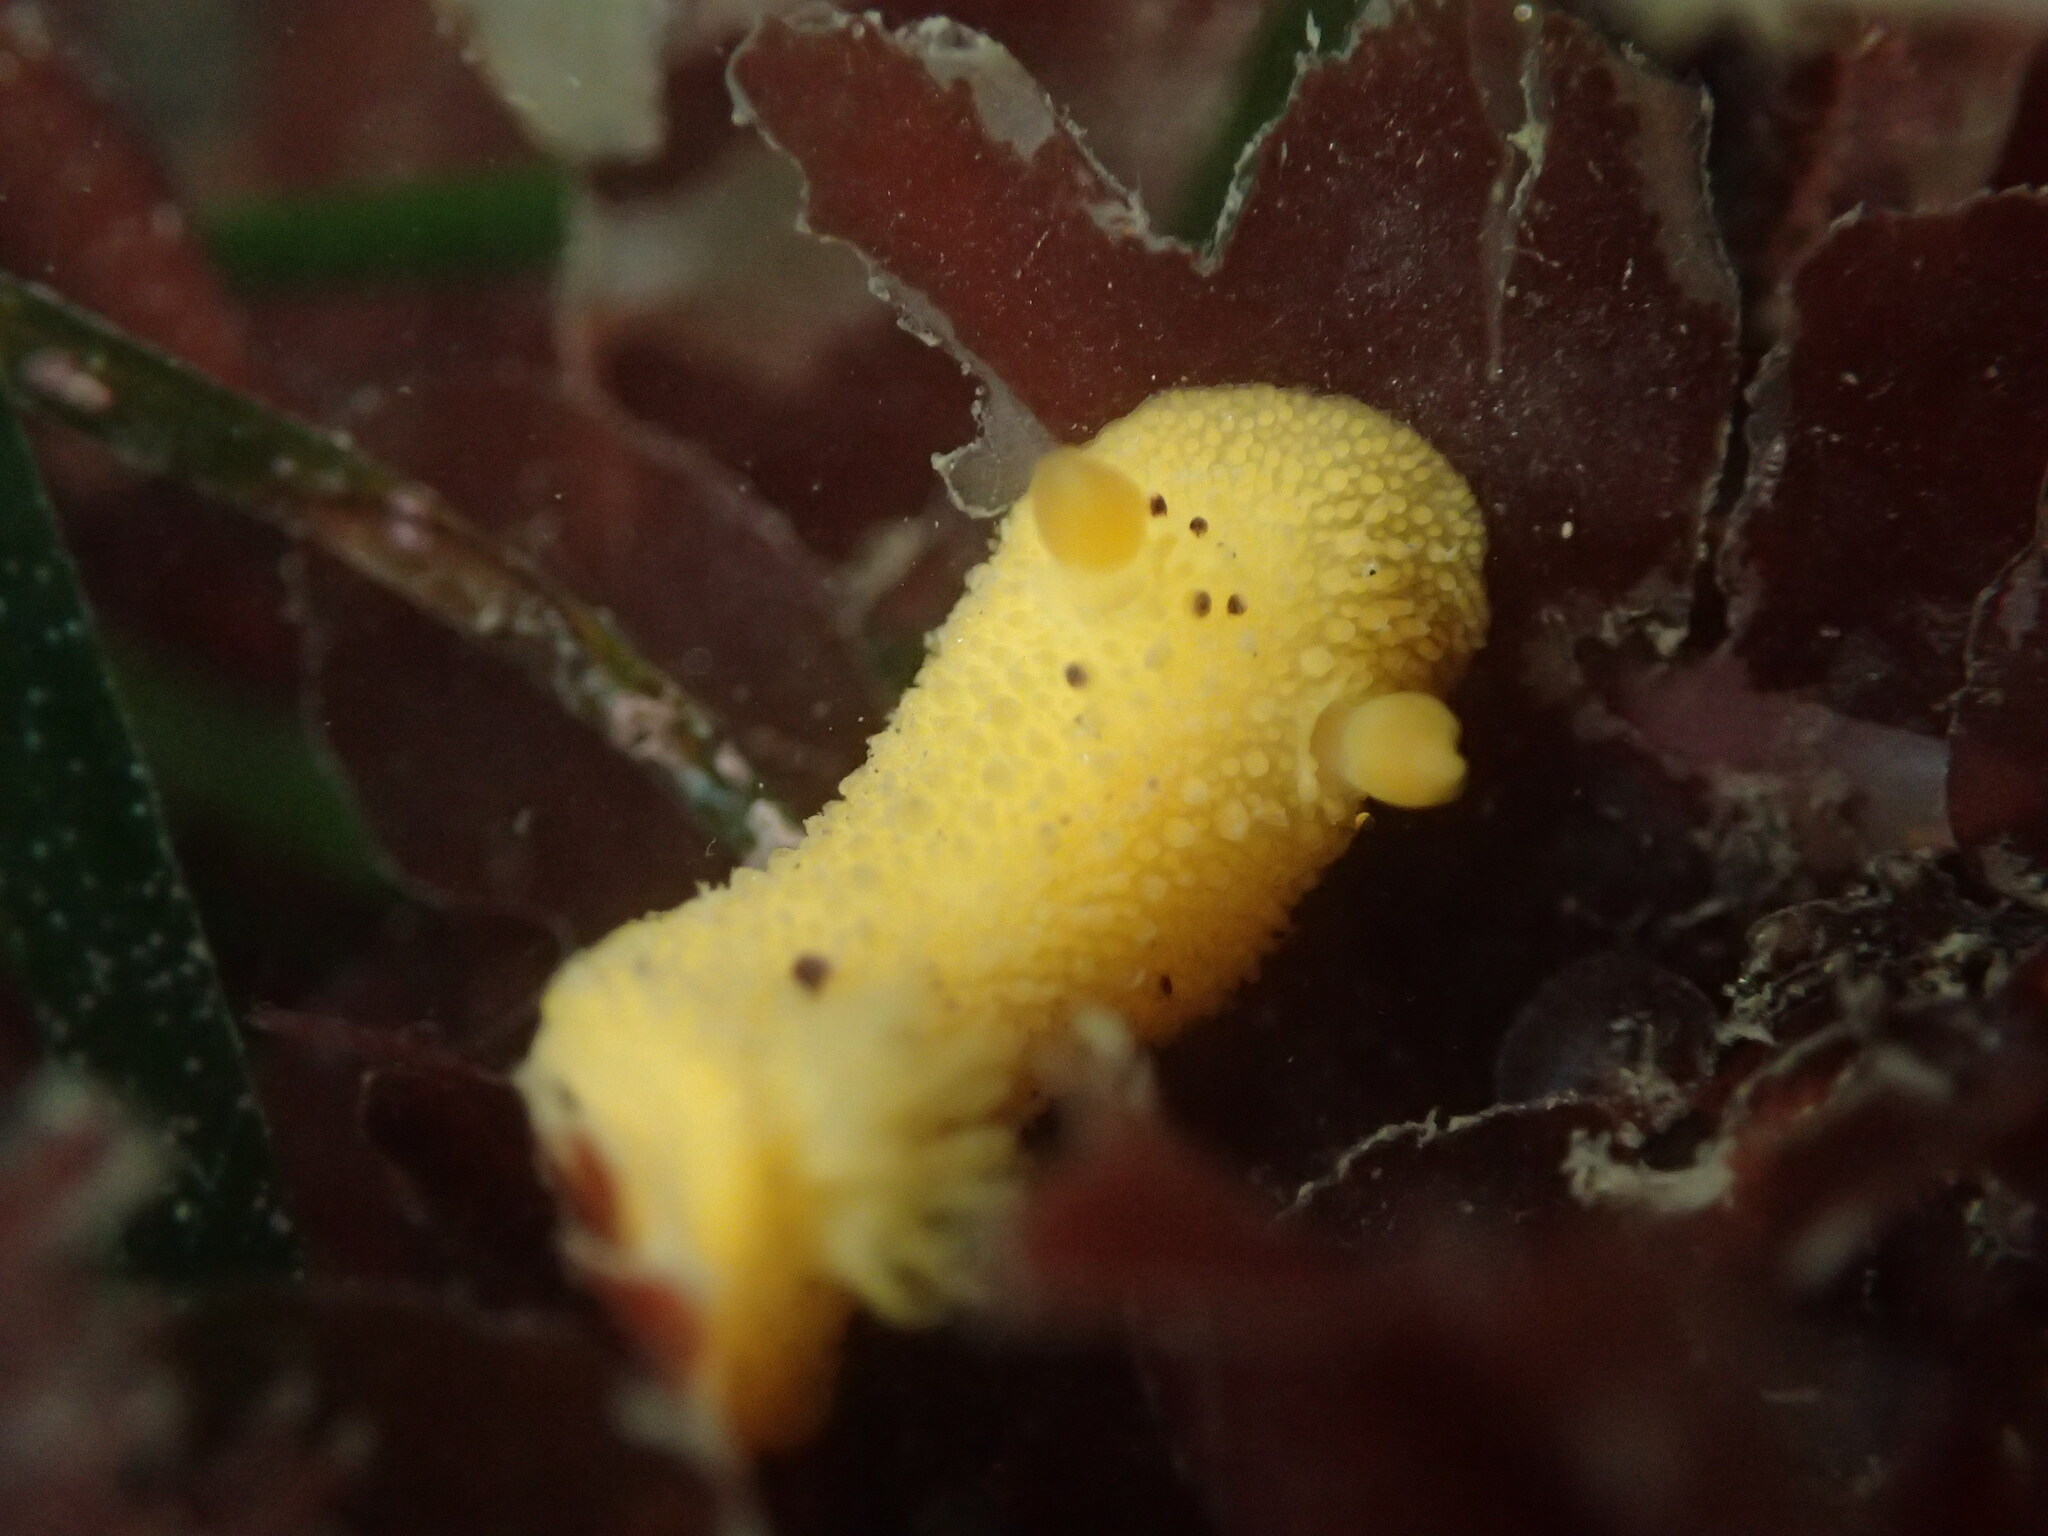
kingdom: Animalia
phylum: Mollusca
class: Gastropoda
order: Nudibranchia
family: Dorididae
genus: Doris
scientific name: Doris montereyensis
